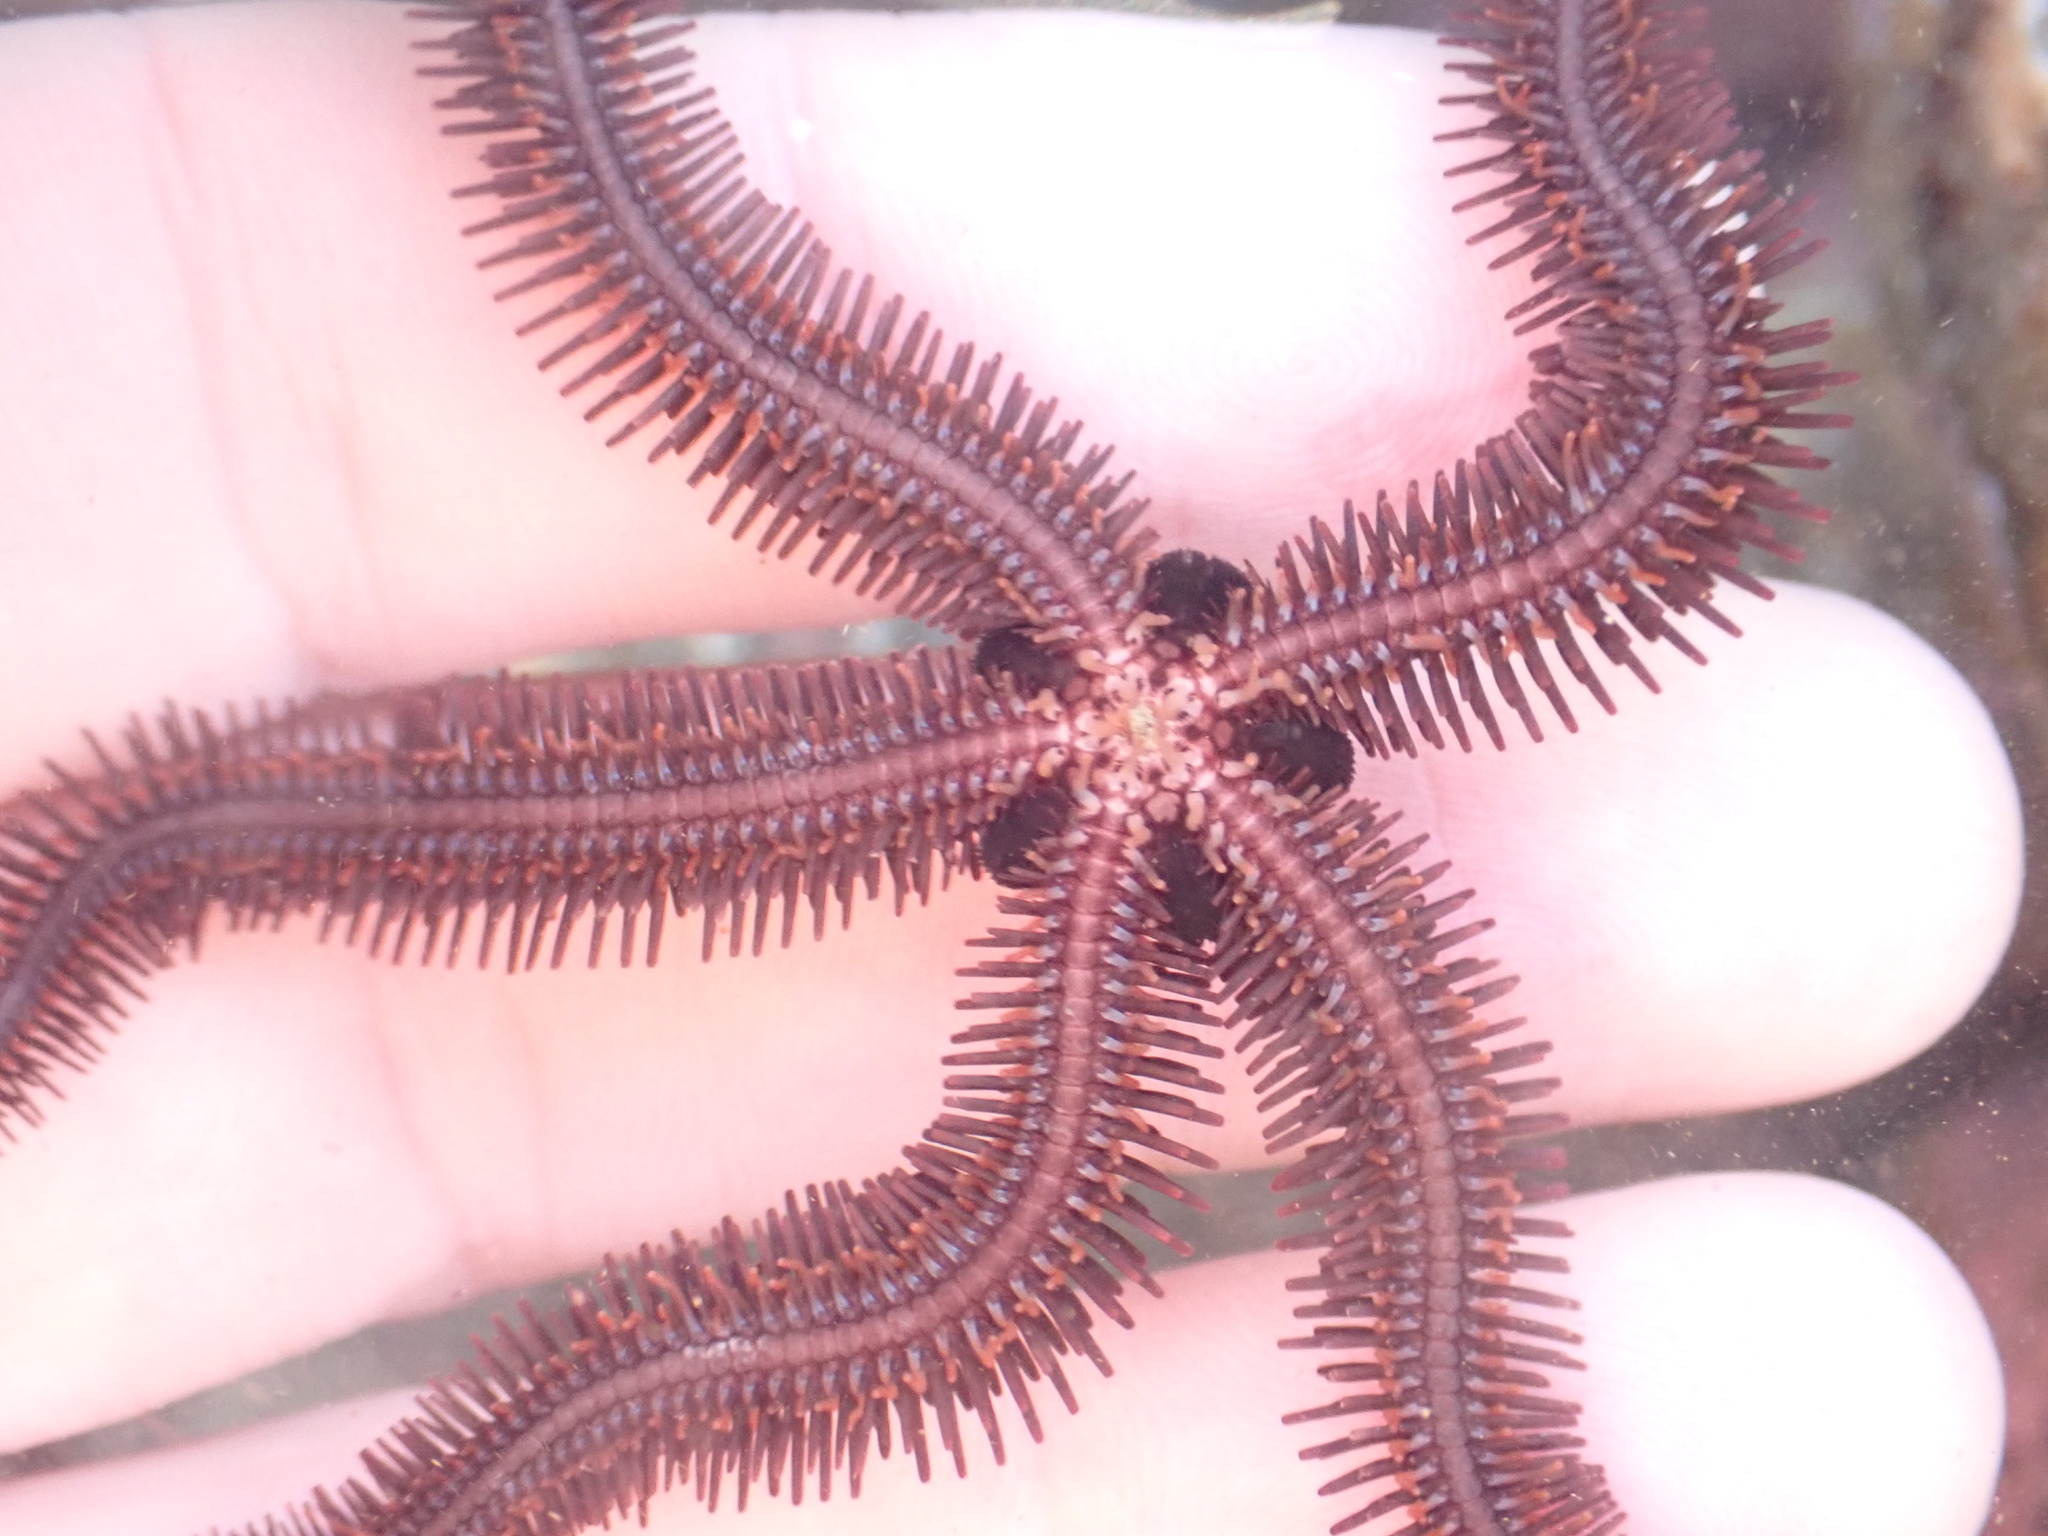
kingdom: Animalia
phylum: Echinodermata
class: Ophiuroidea
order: Ophiacanthida
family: Ophiopteridae
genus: Ophiopteris
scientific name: Ophiopteris antipodum
